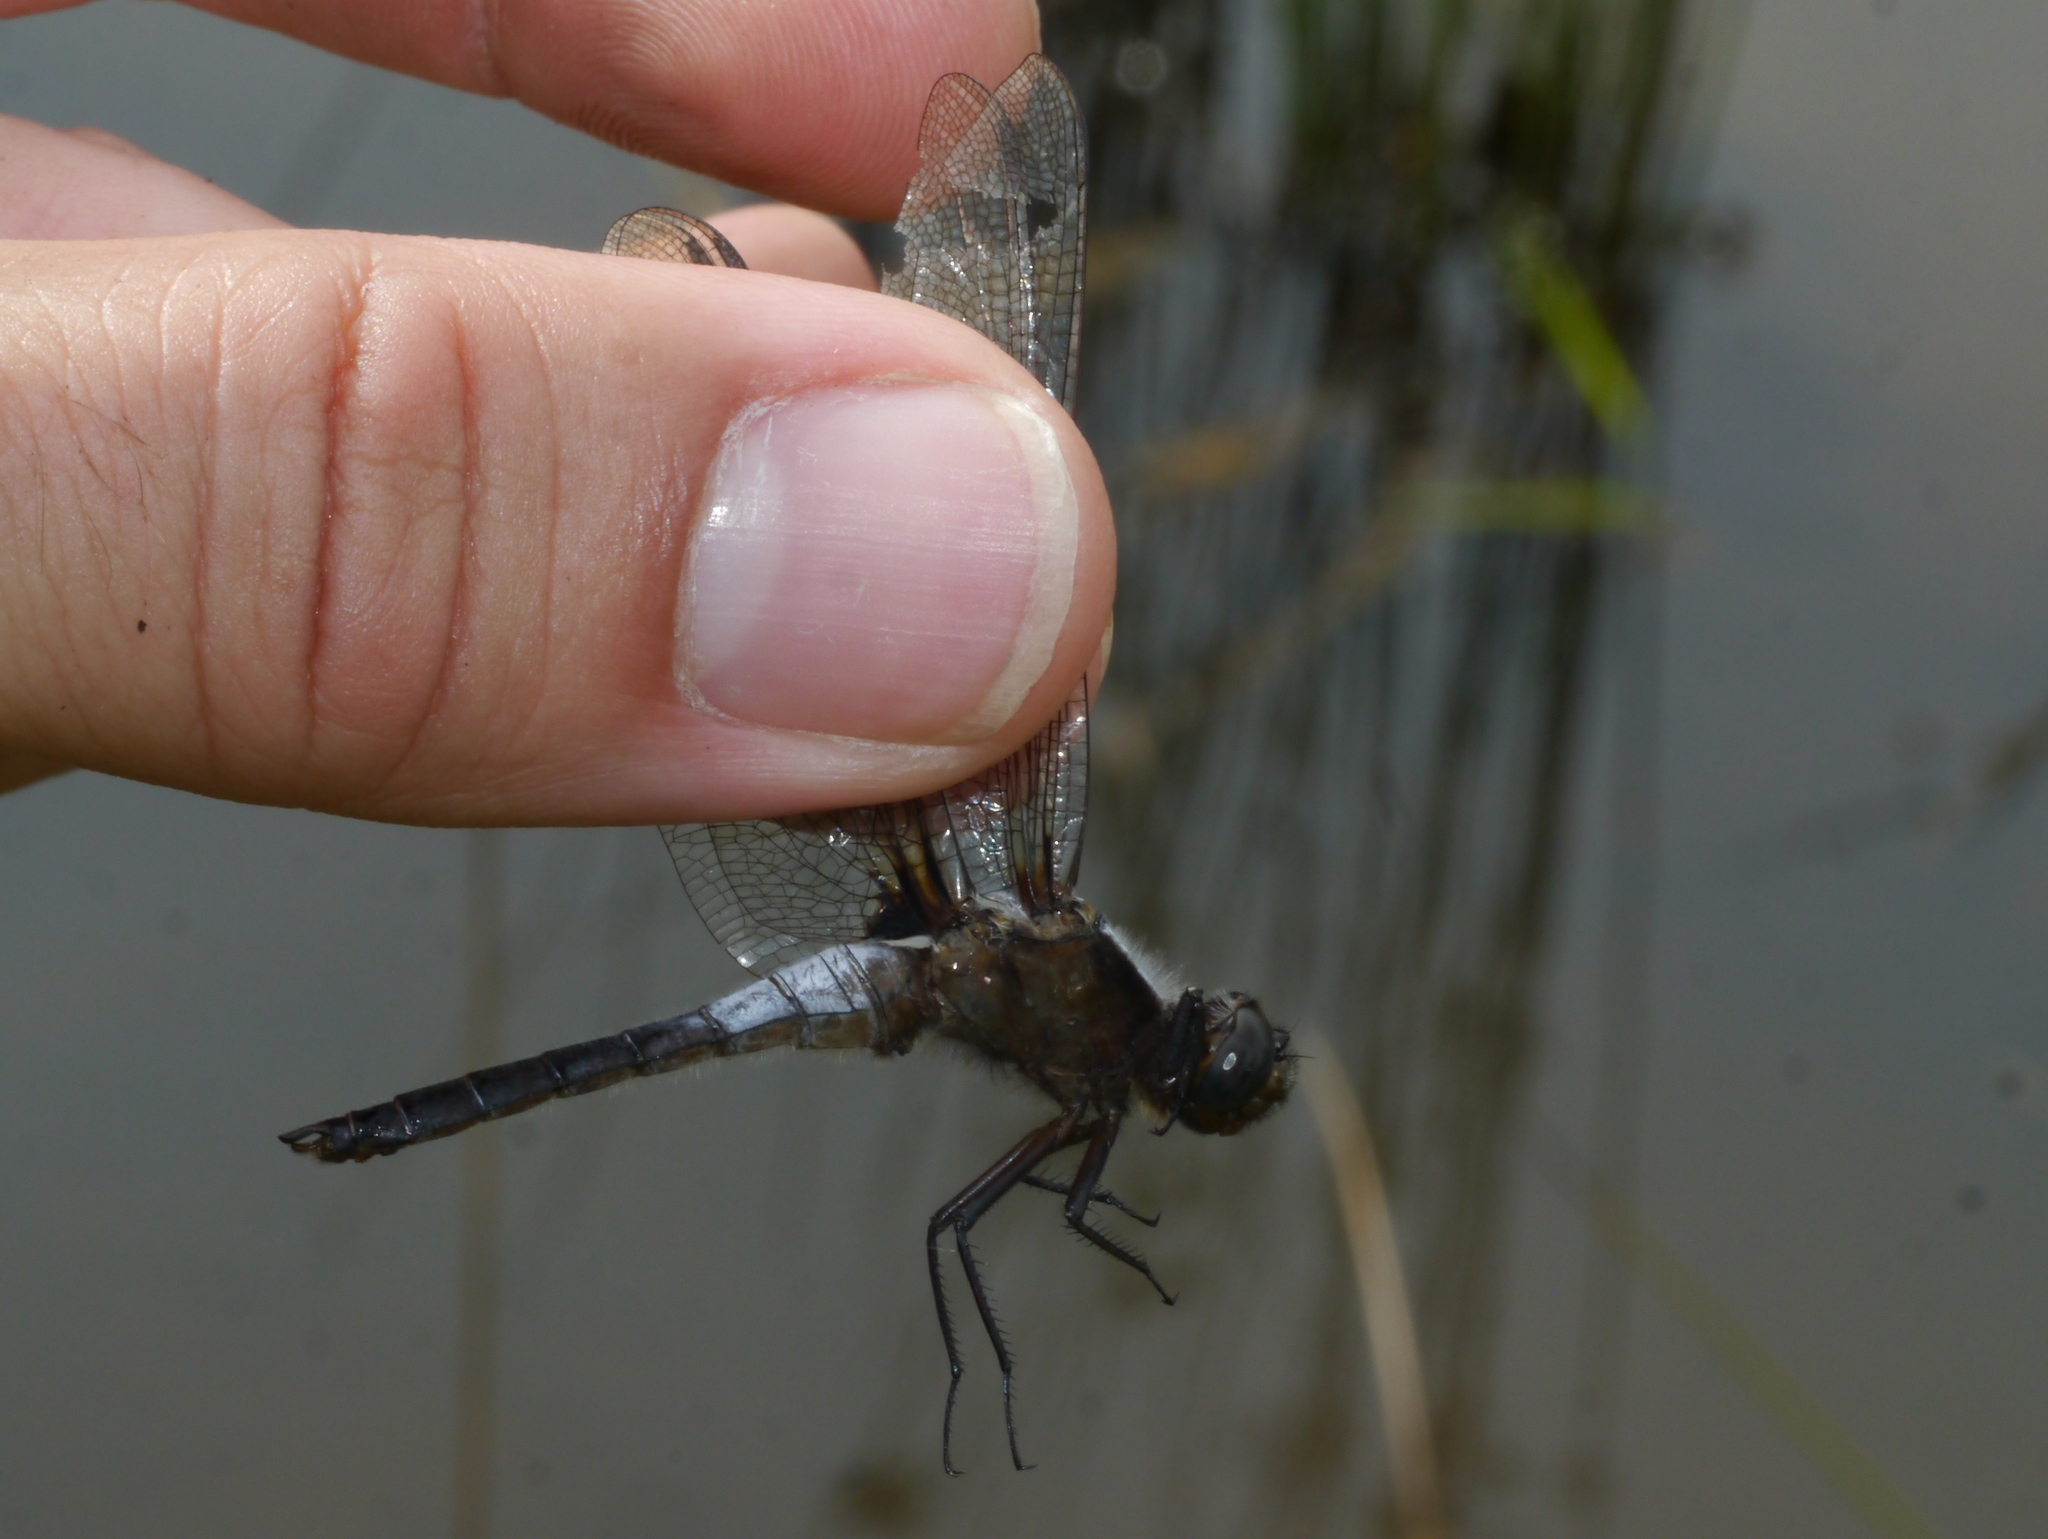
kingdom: Animalia
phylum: Arthropoda
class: Insecta
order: Odonata
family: Libellulidae
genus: Ladona
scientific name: Ladona julia
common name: Chalk-fronted corporal
